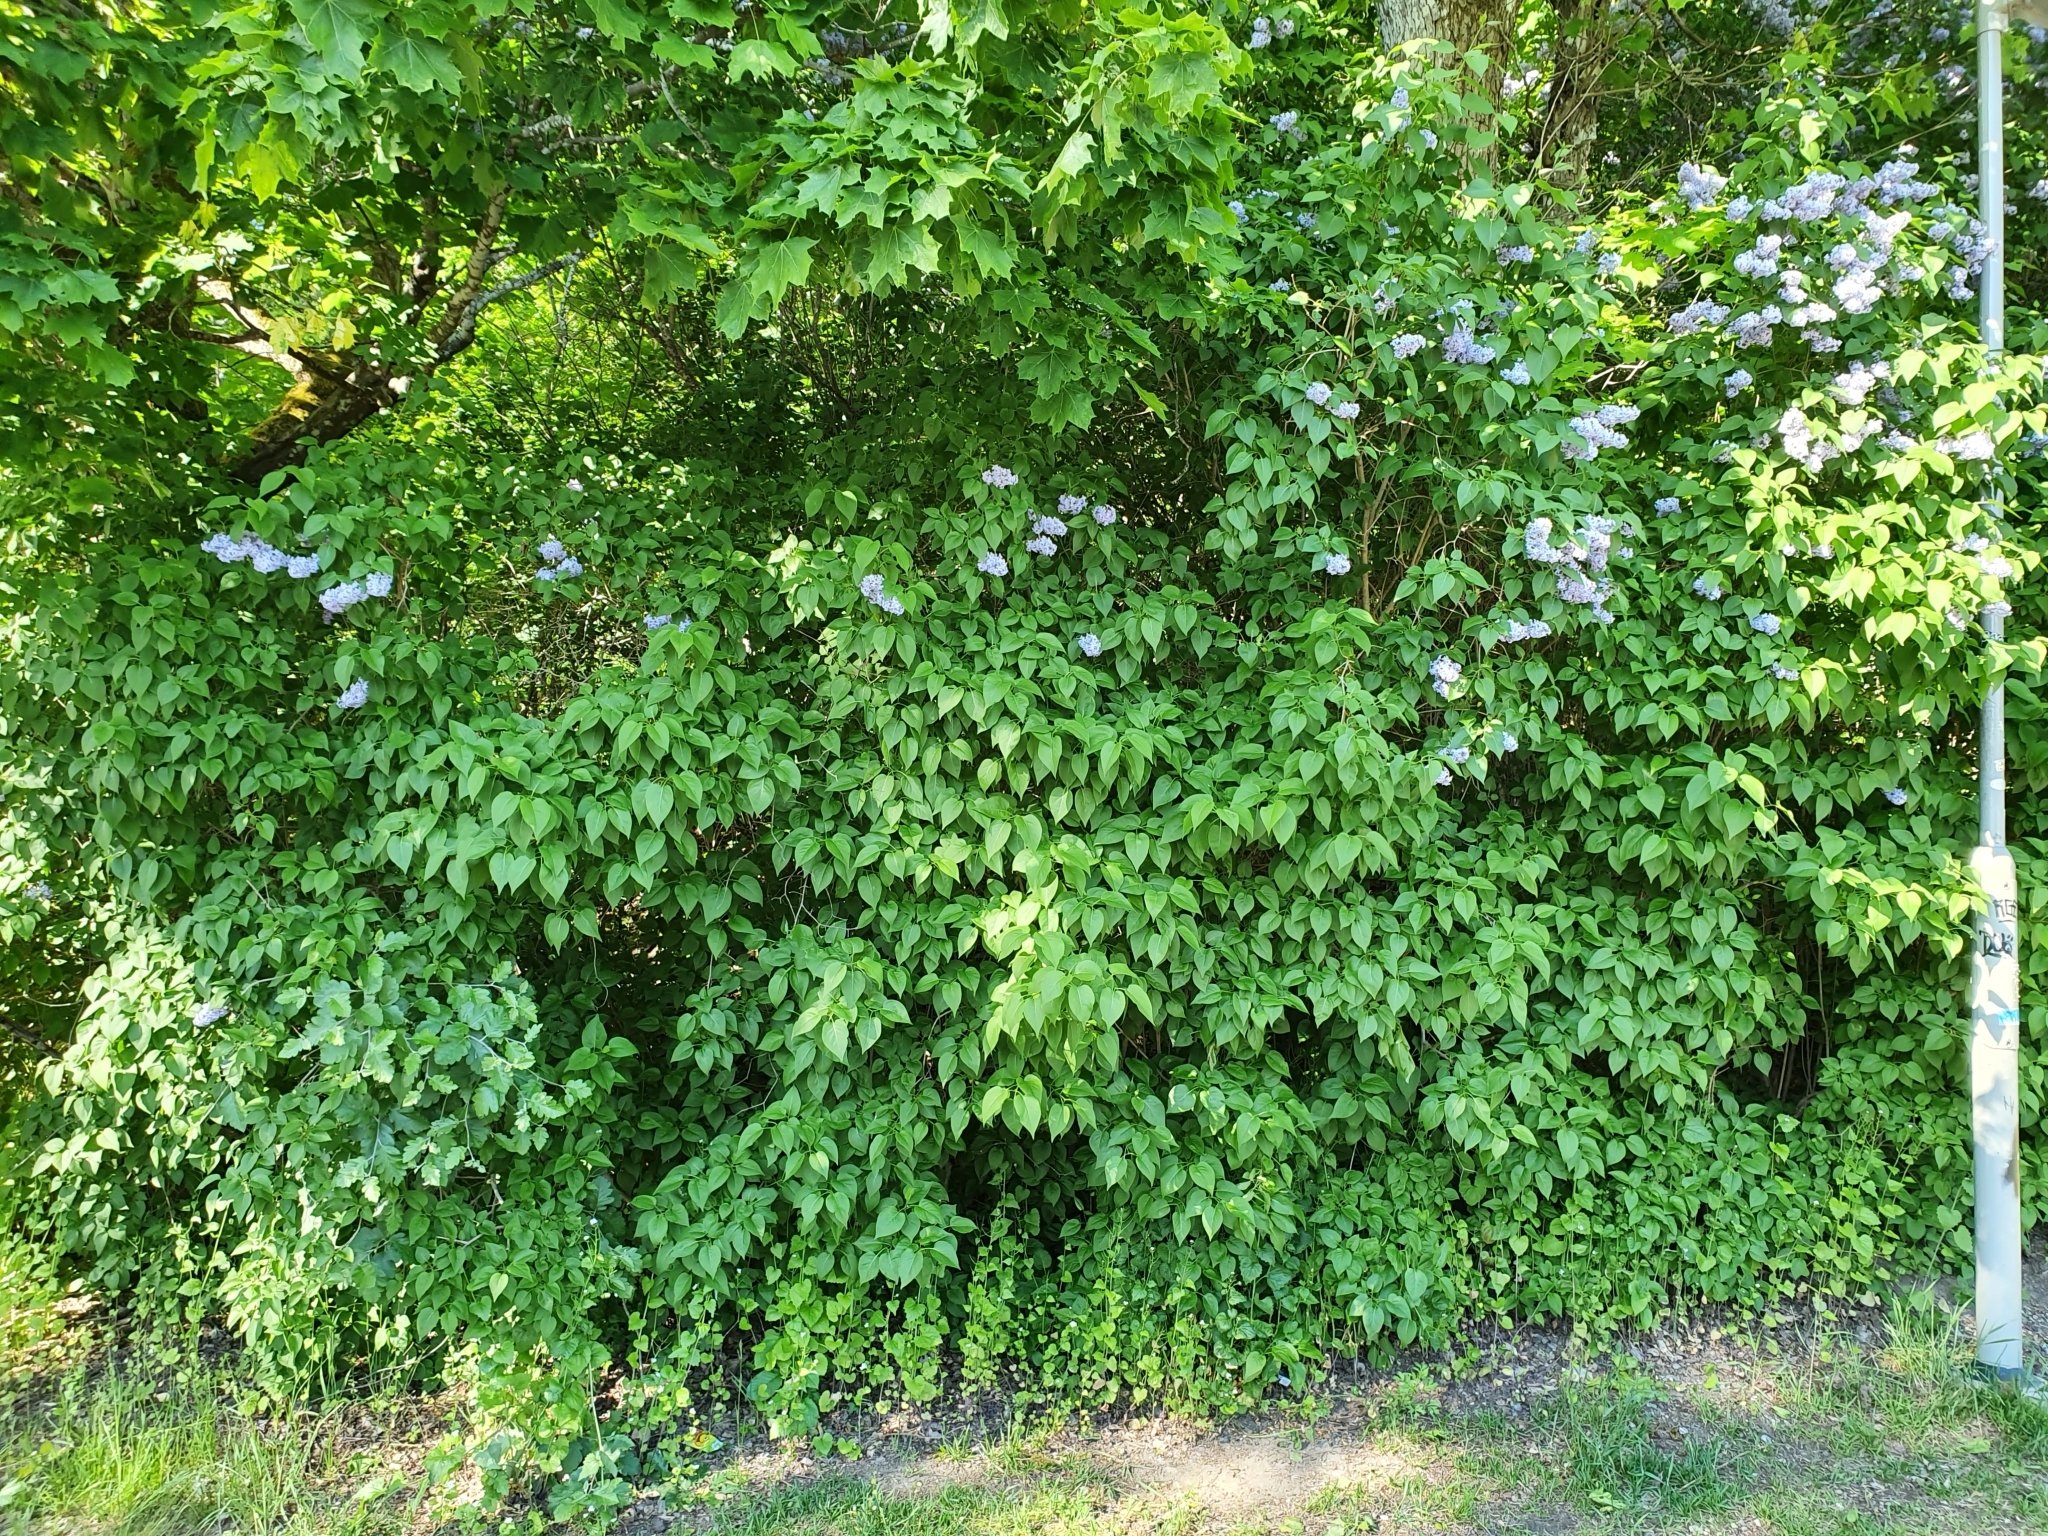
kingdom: Plantae
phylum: Tracheophyta
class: Magnoliopsida
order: Lamiales
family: Oleaceae
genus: Syringa
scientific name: Syringa vulgaris
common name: Common lilac
